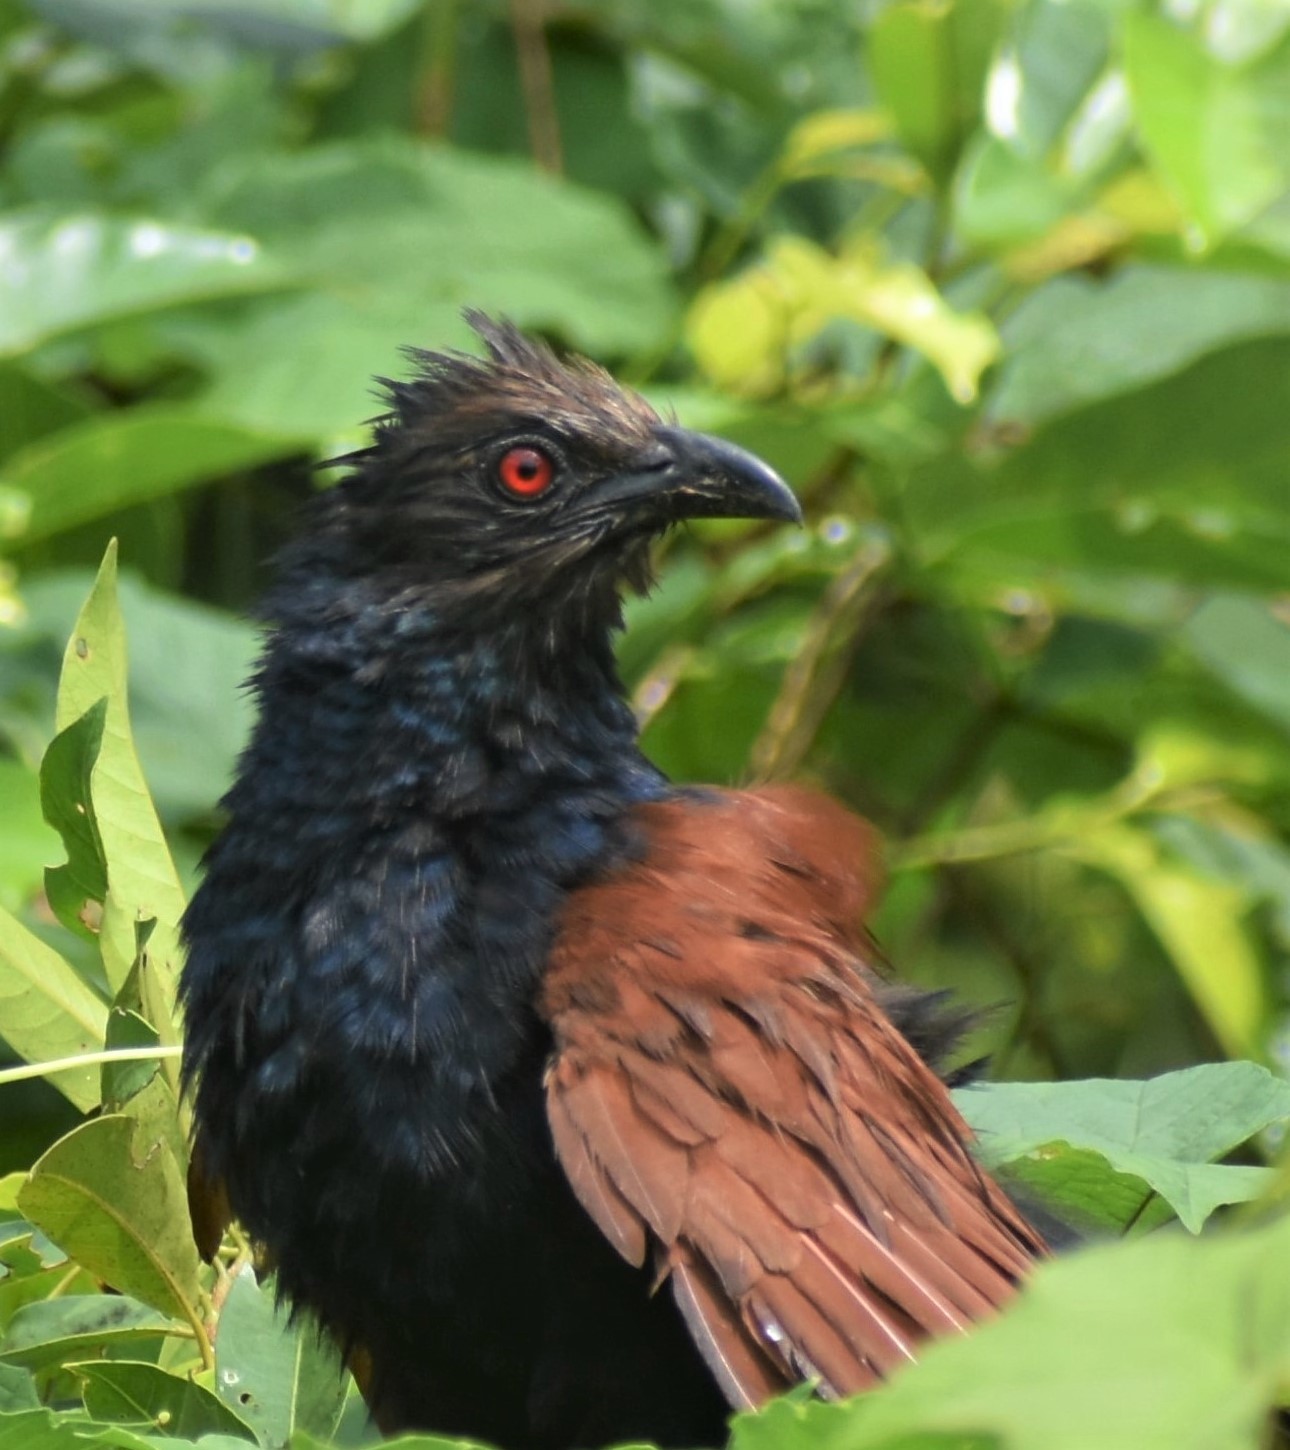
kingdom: Animalia
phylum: Chordata
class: Aves
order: Cuculiformes
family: Cuculidae
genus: Centropus
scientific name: Centropus sinensis
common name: Greater coucal
